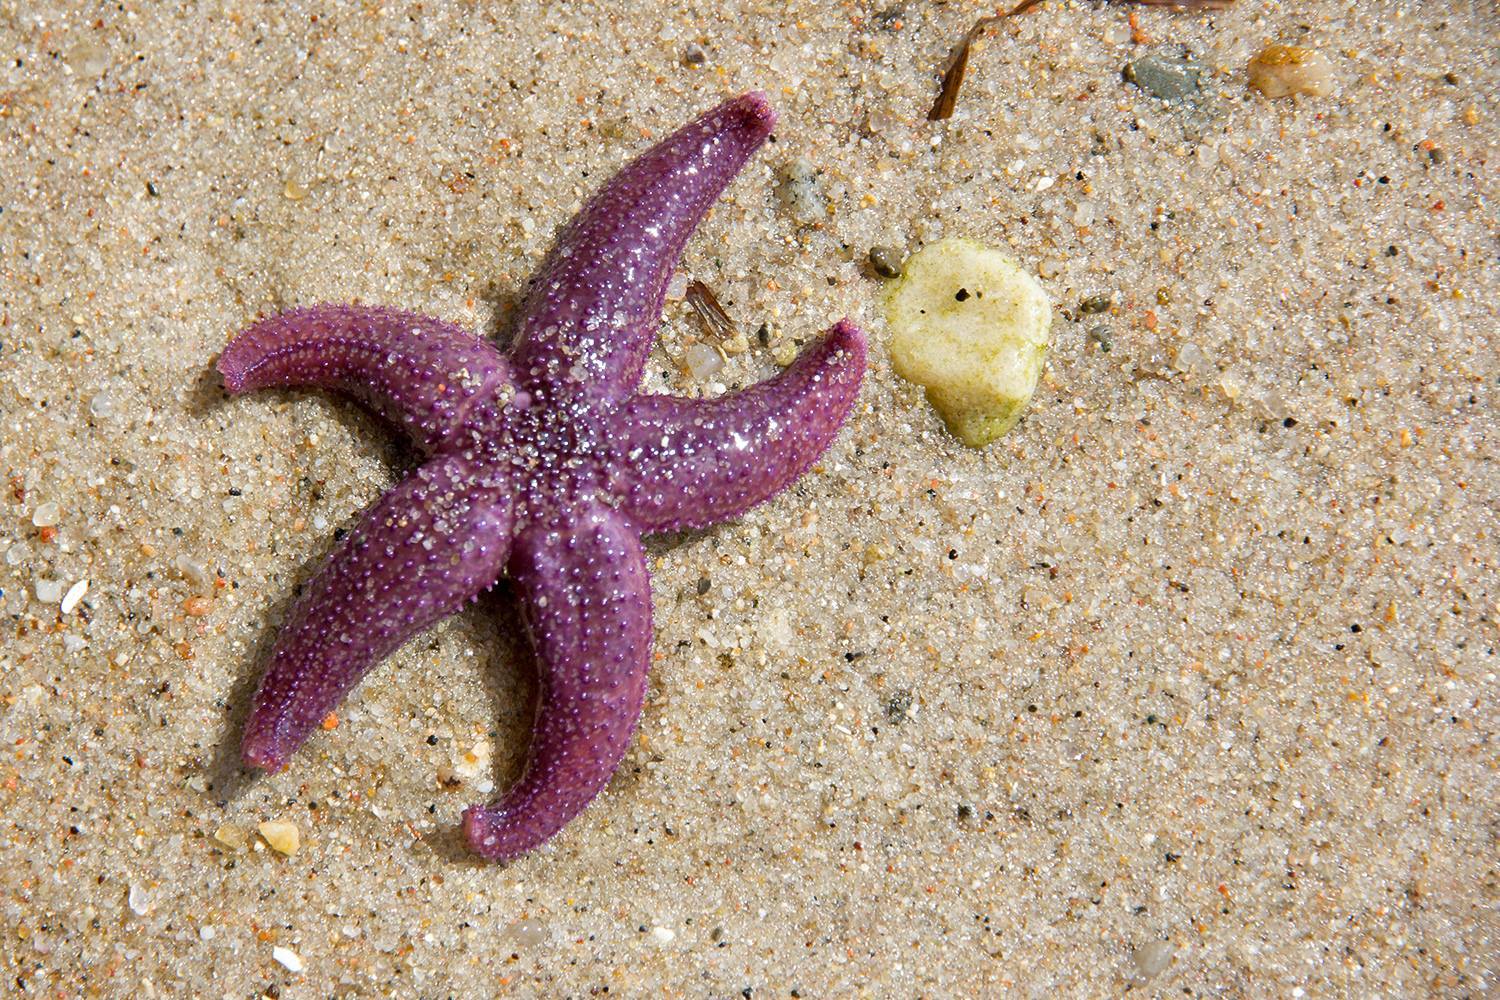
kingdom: Animalia
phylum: Echinodermata
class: Asteroidea
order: Forcipulatida
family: Asteriidae
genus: Asterias
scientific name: Asterias rubens
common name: Common starfish
